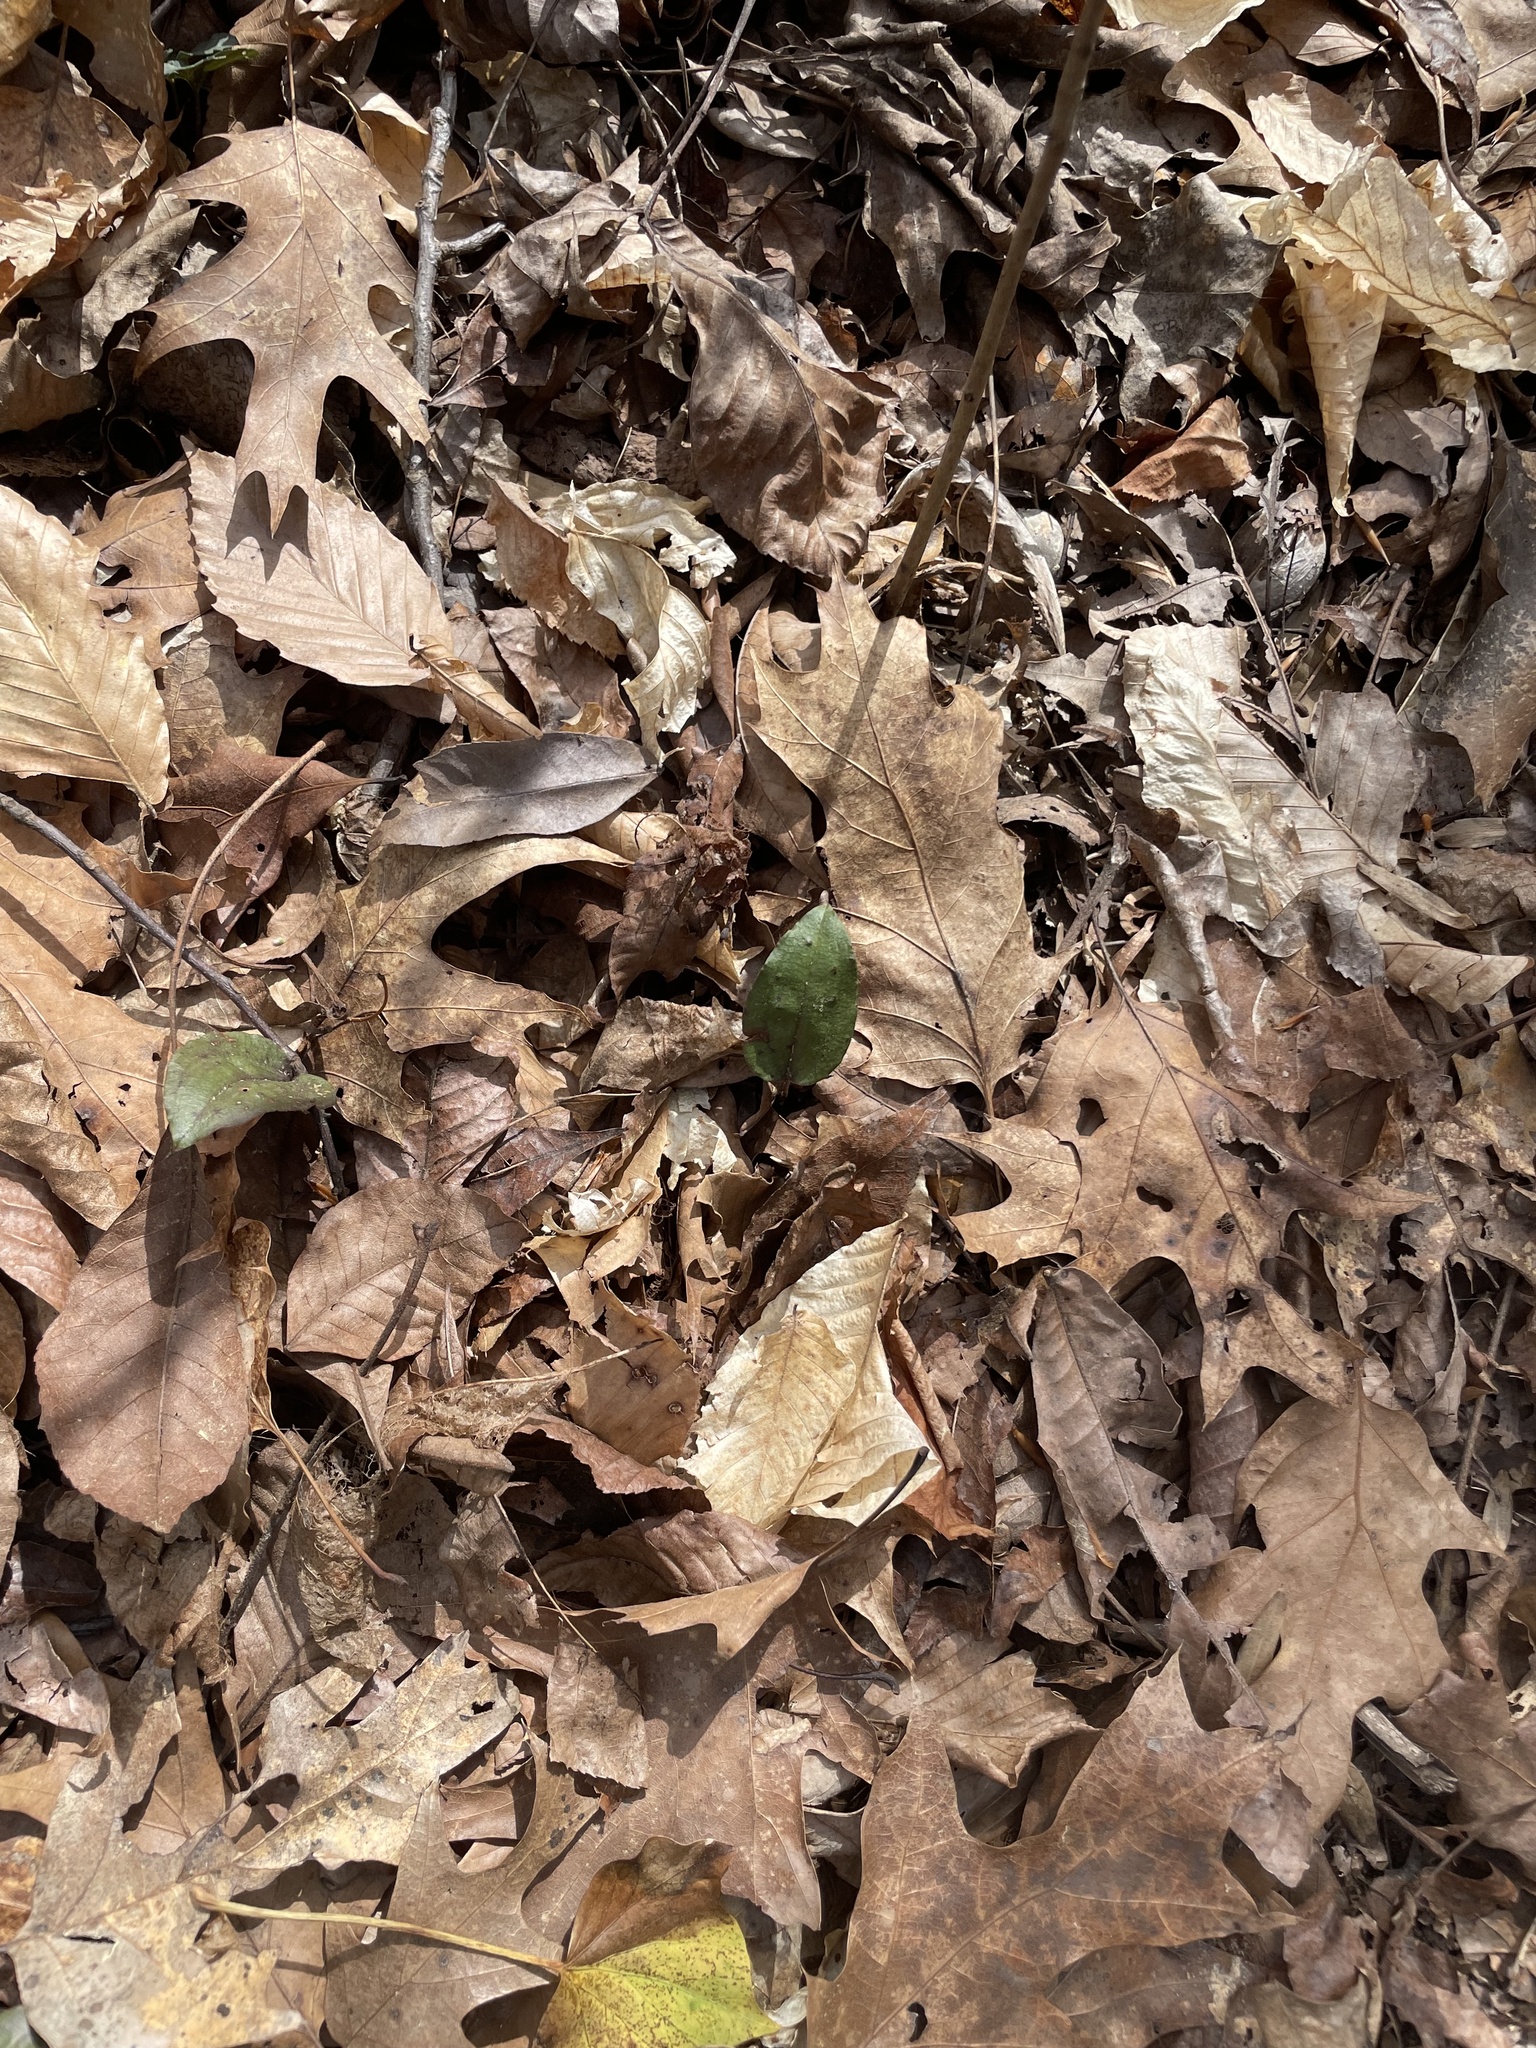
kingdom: Plantae
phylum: Tracheophyta
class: Liliopsida
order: Asparagales
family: Orchidaceae
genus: Tipularia
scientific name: Tipularia discolor
